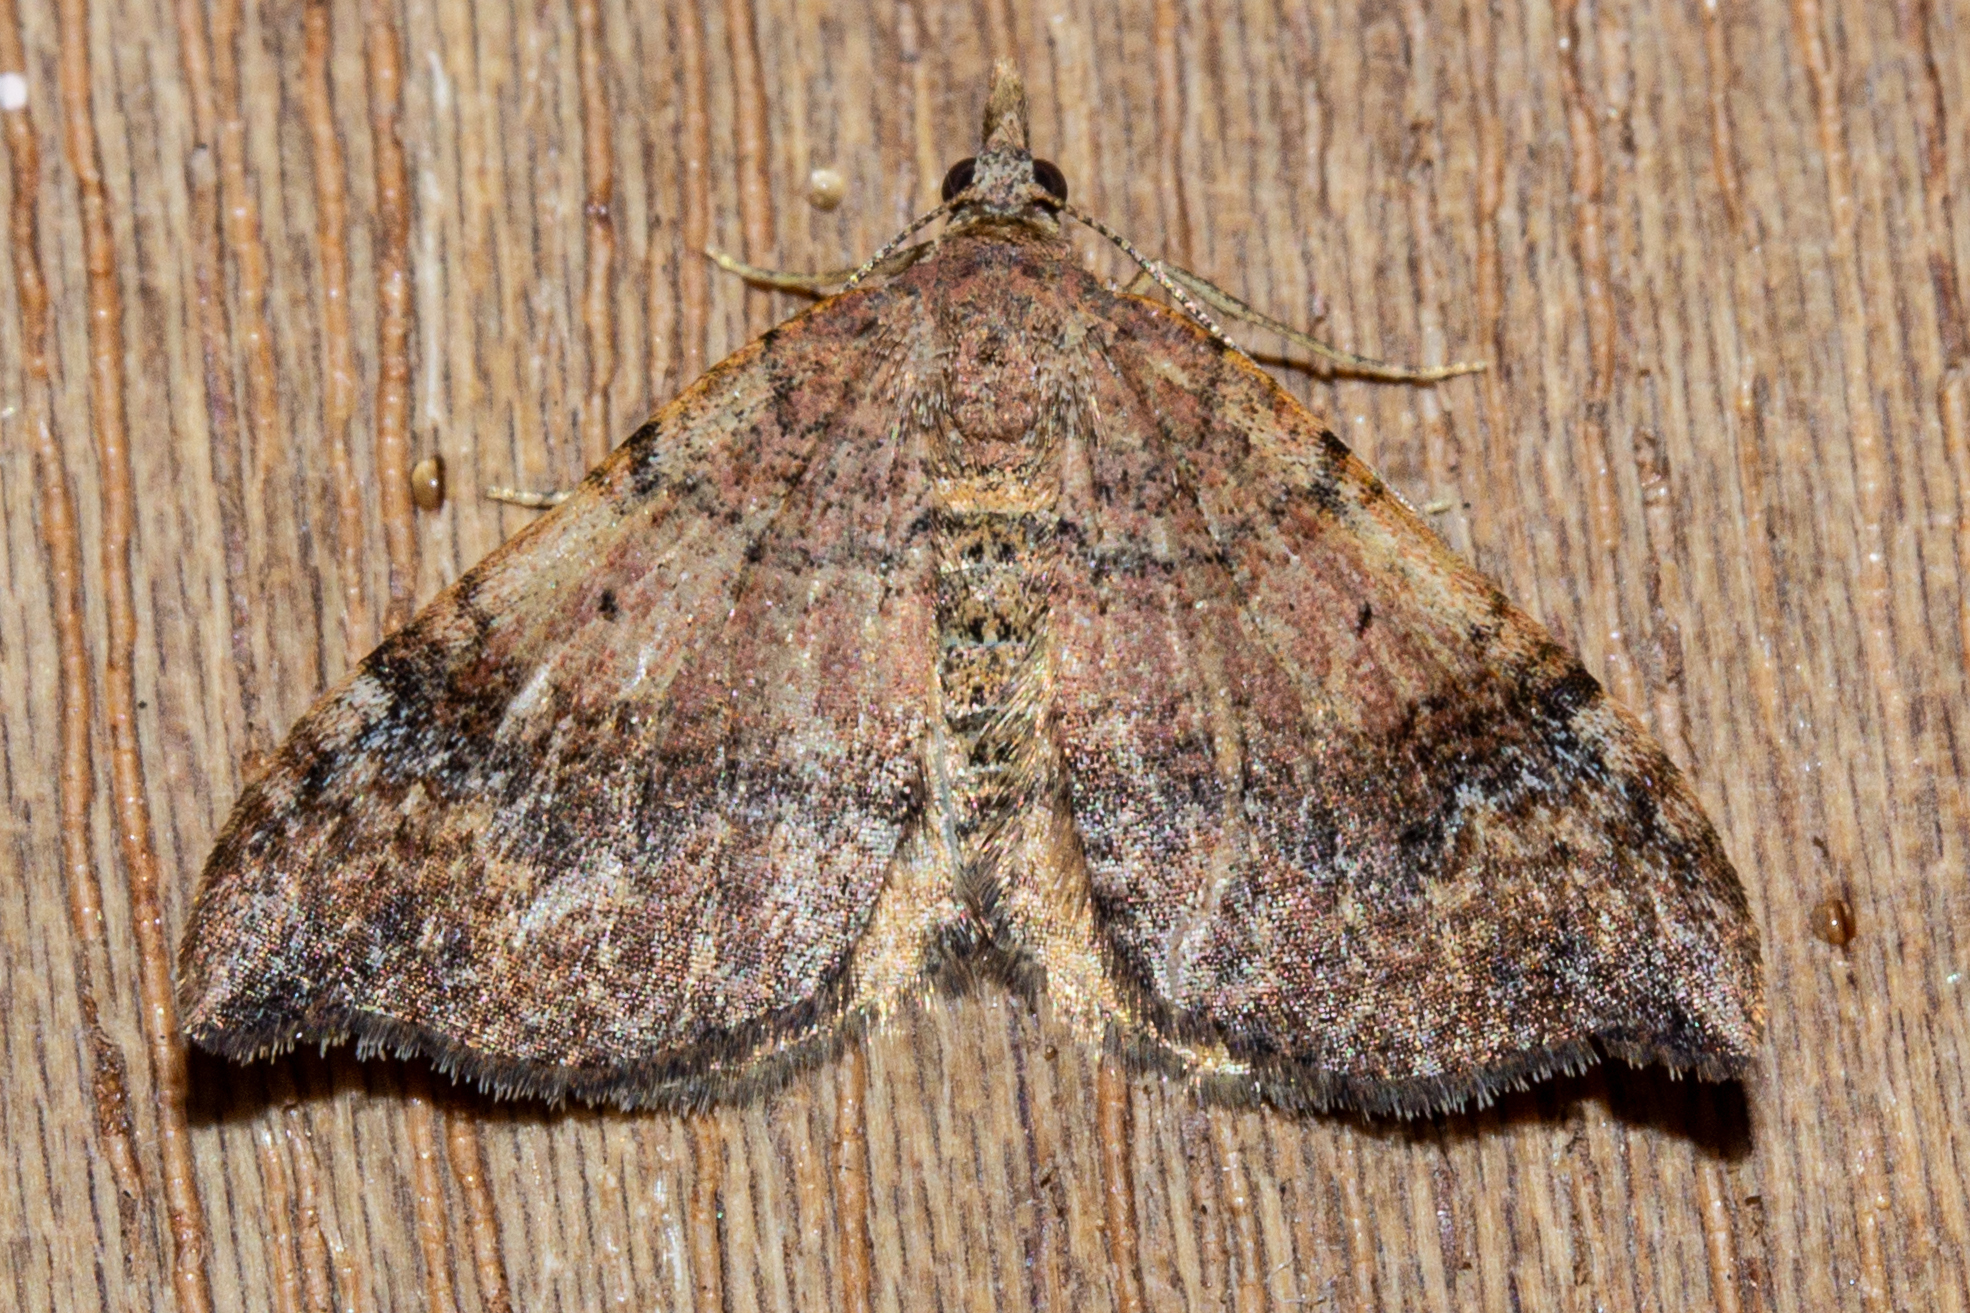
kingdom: Animalia
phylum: Arthropoda
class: Insecta
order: Lepidoptera
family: Geometridae
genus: Homodotis
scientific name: Homodotis megaspilata
